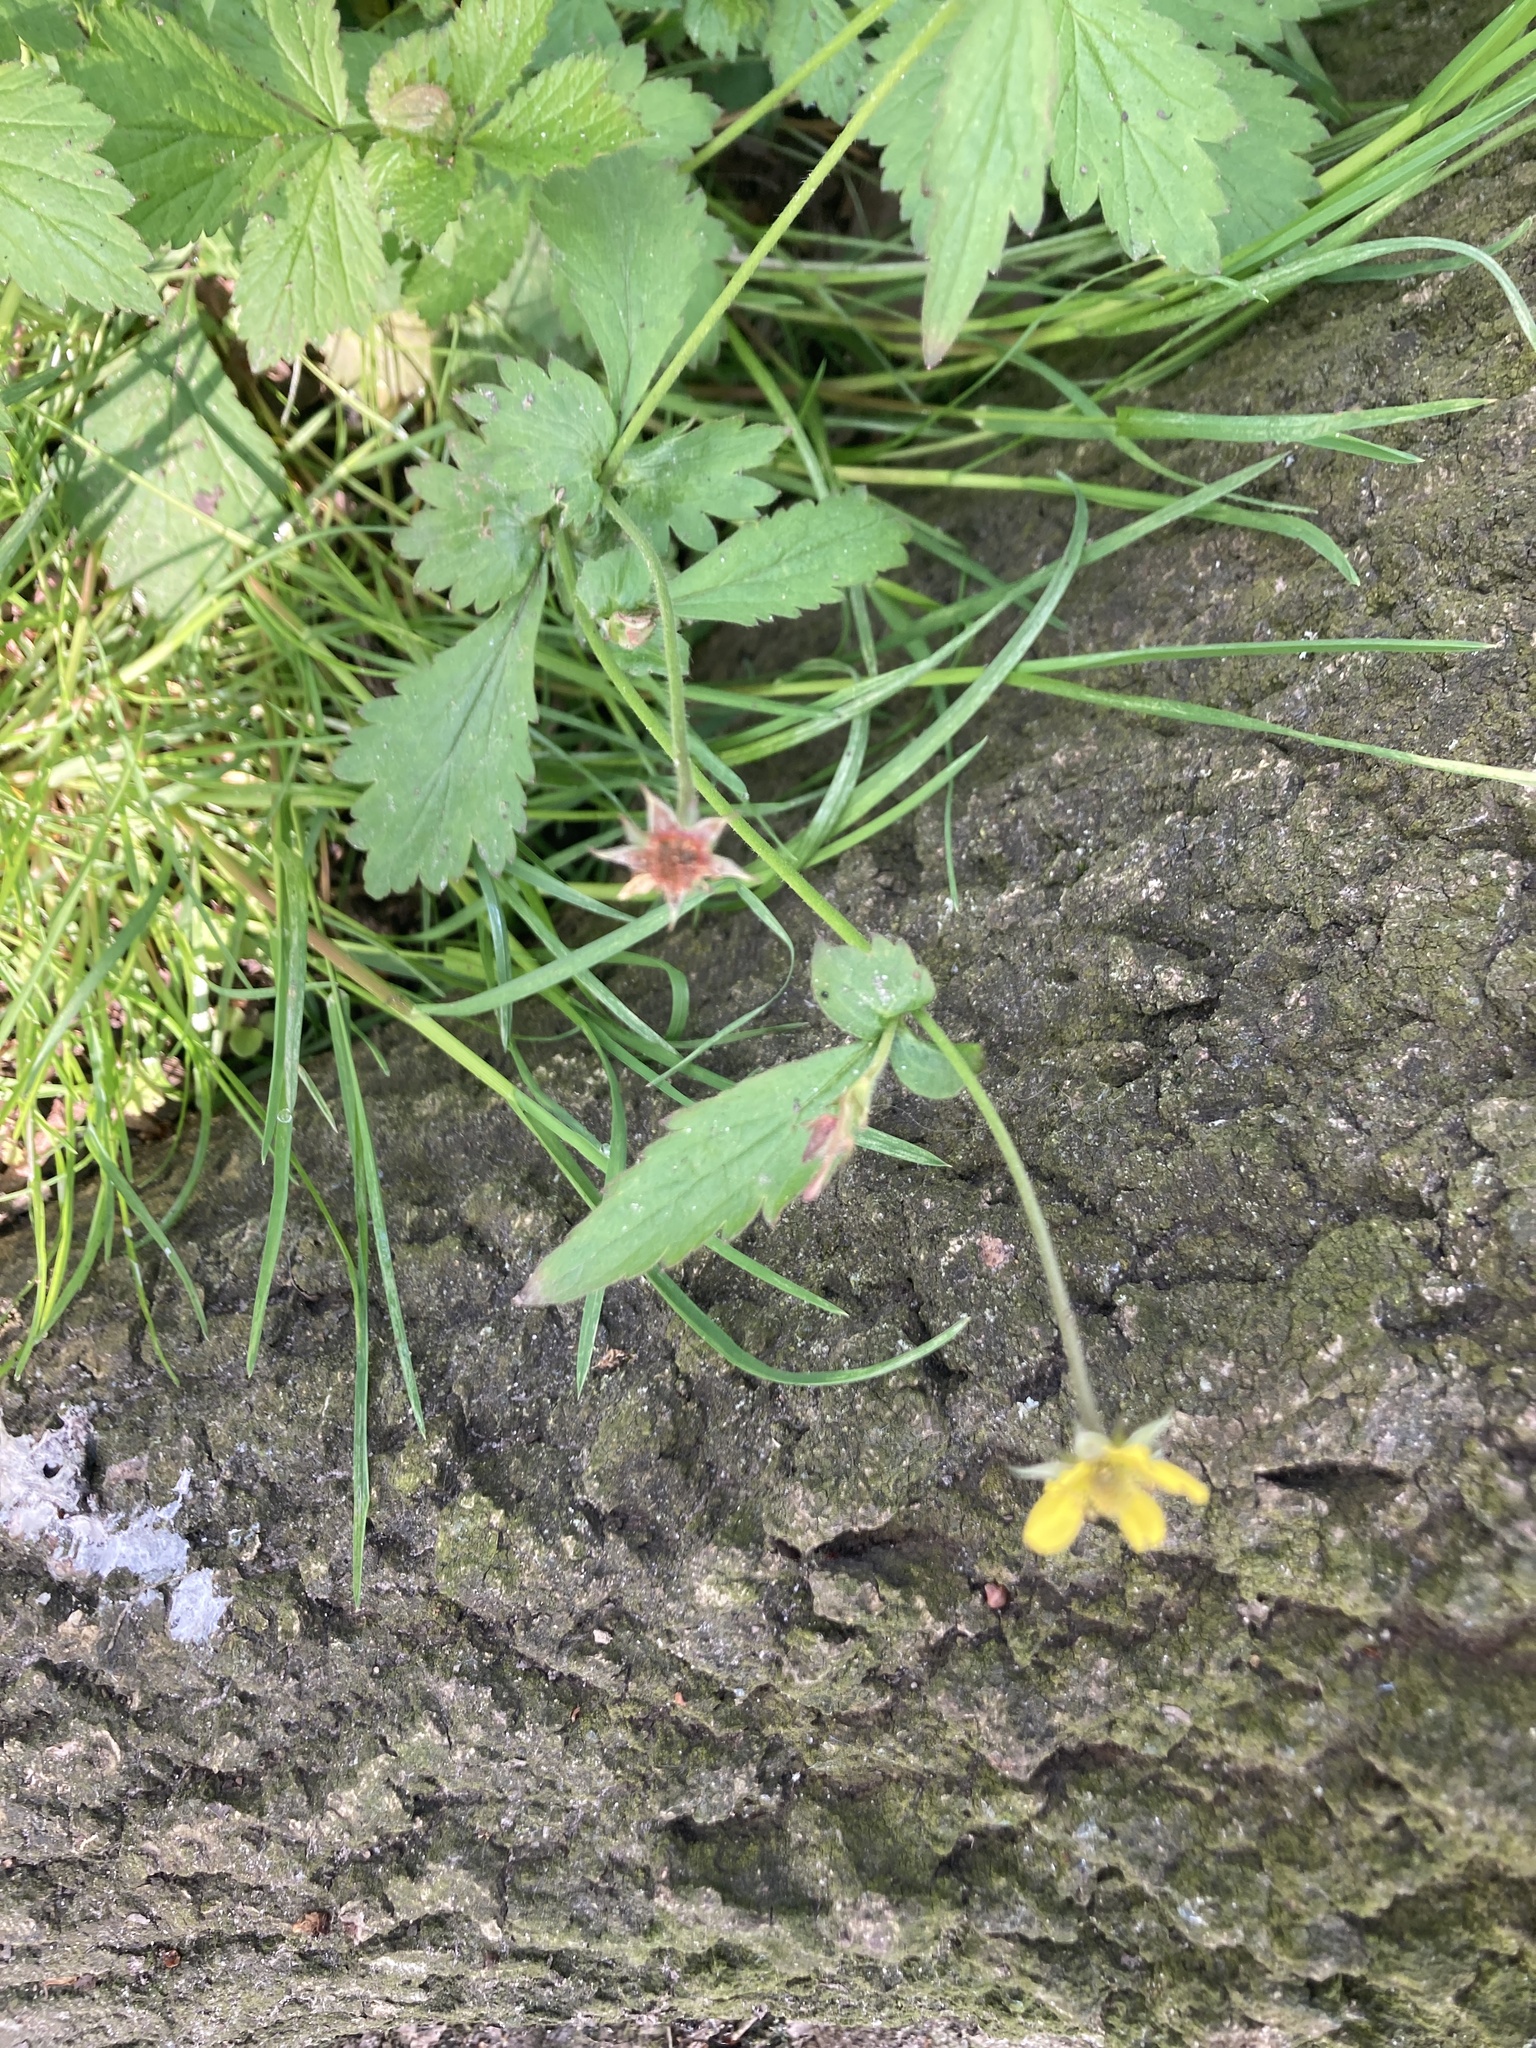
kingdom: Plantae
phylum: Tracheophyta
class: Magnoliopsida
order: Rosales
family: Rosaceae
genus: Geum
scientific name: Geum urbanum
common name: Wood avens
